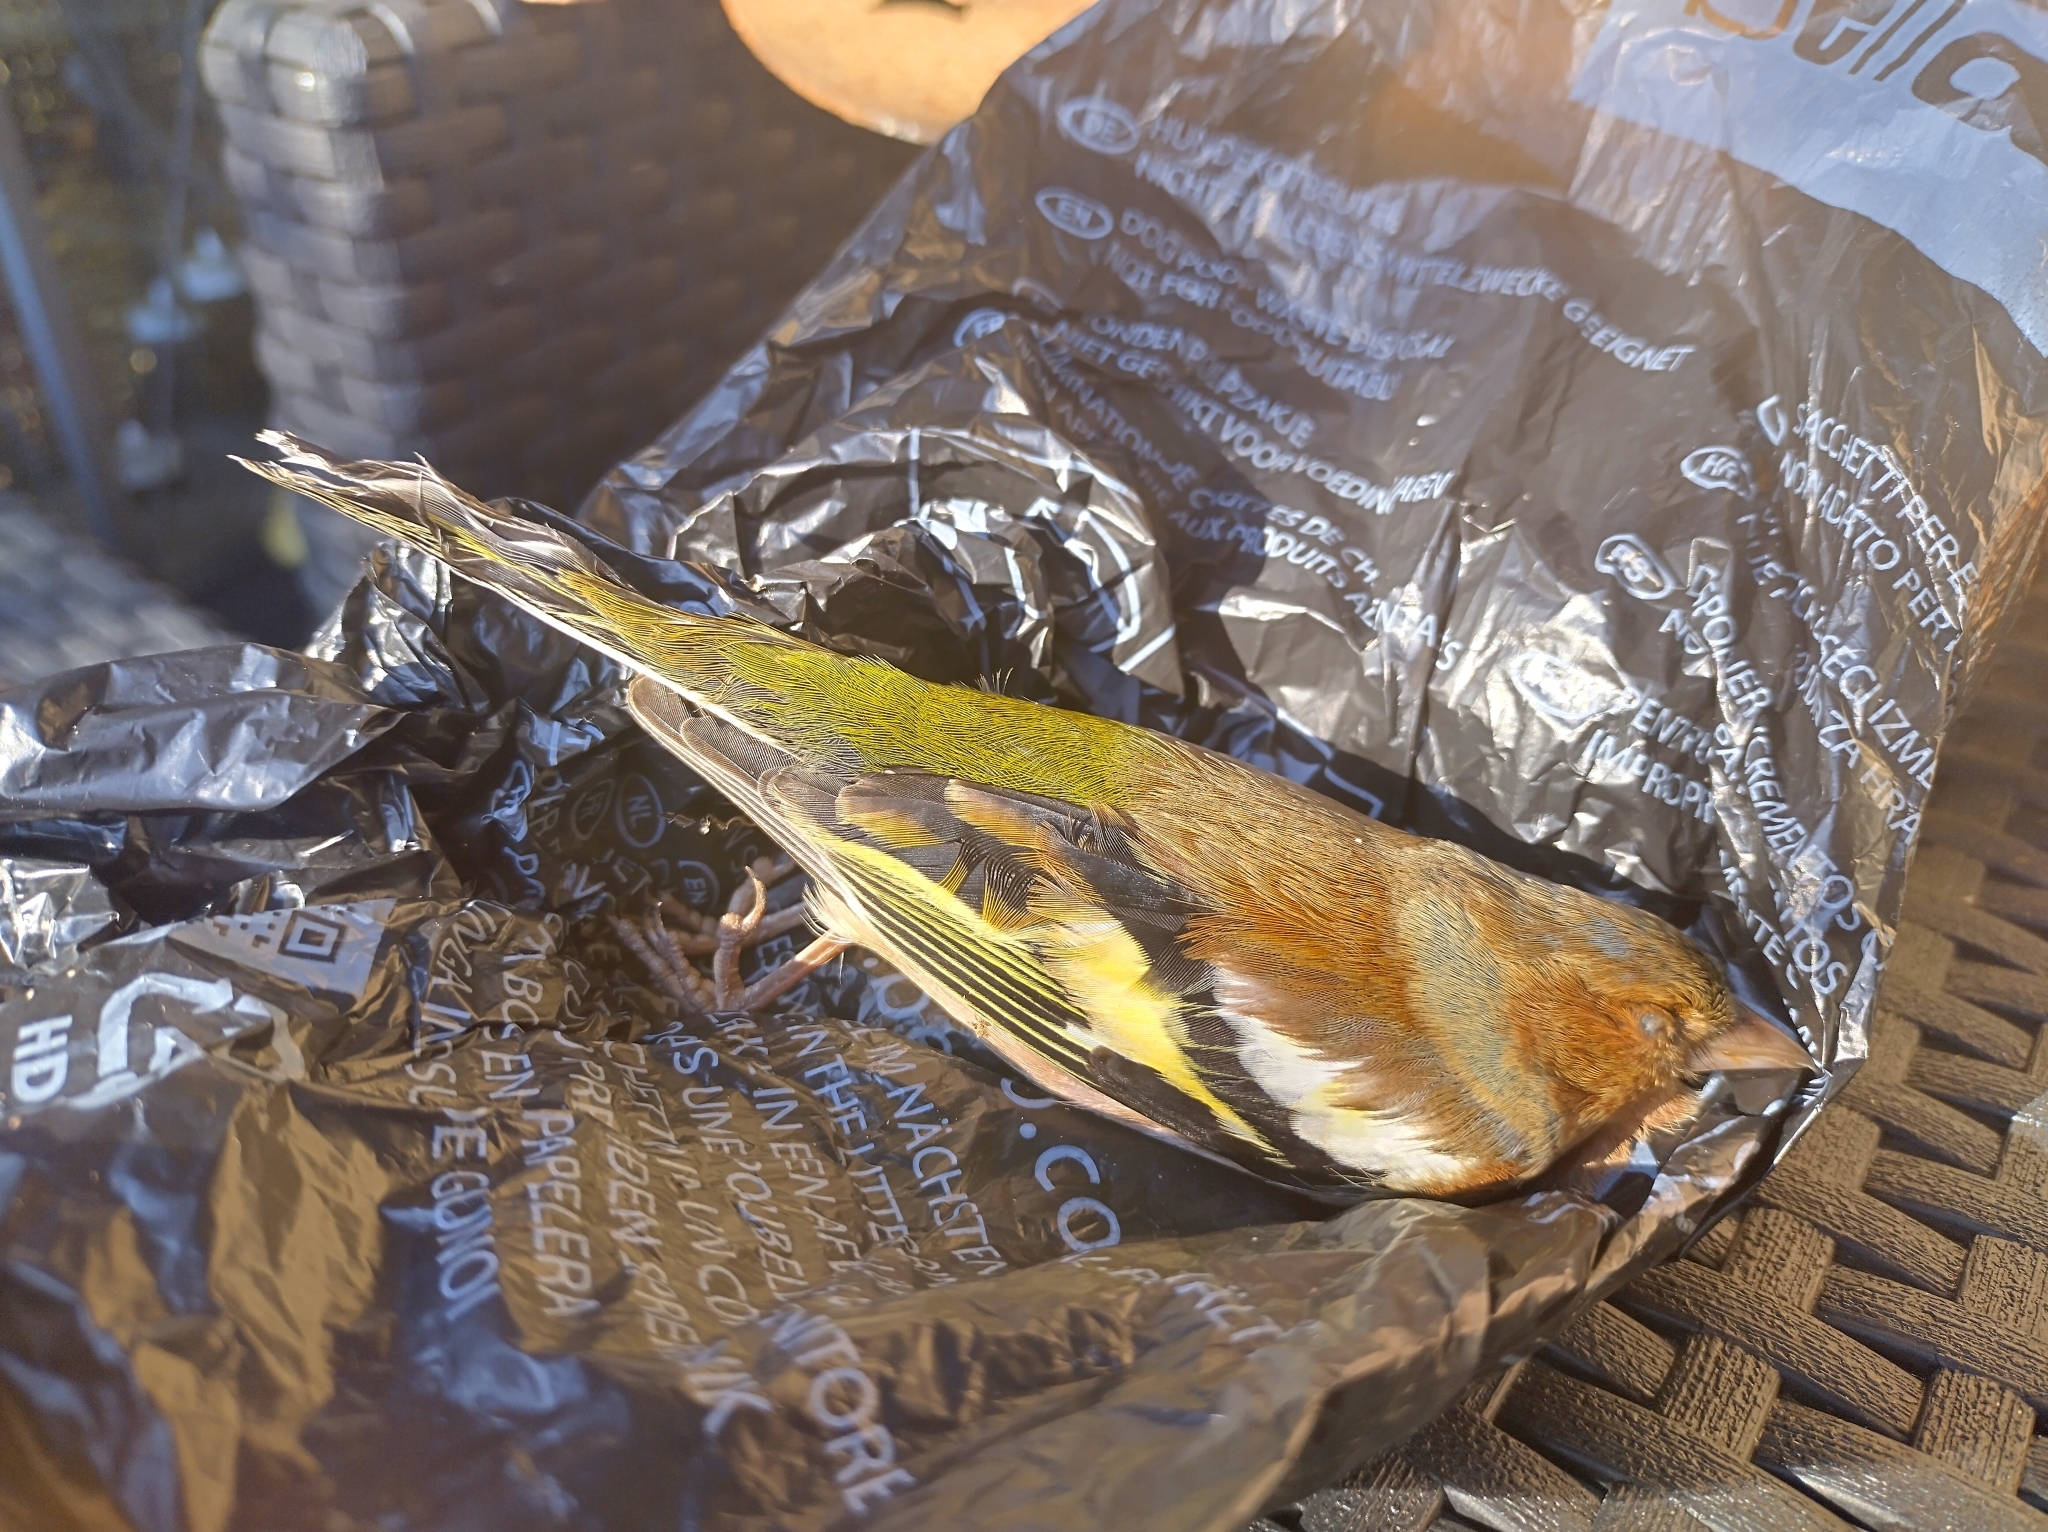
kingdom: Animalia
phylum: Chordata
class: Aves
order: Passeriformes
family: Fringillidae
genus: Fringilla
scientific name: Fringilla coelebs
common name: Common chaffinch
